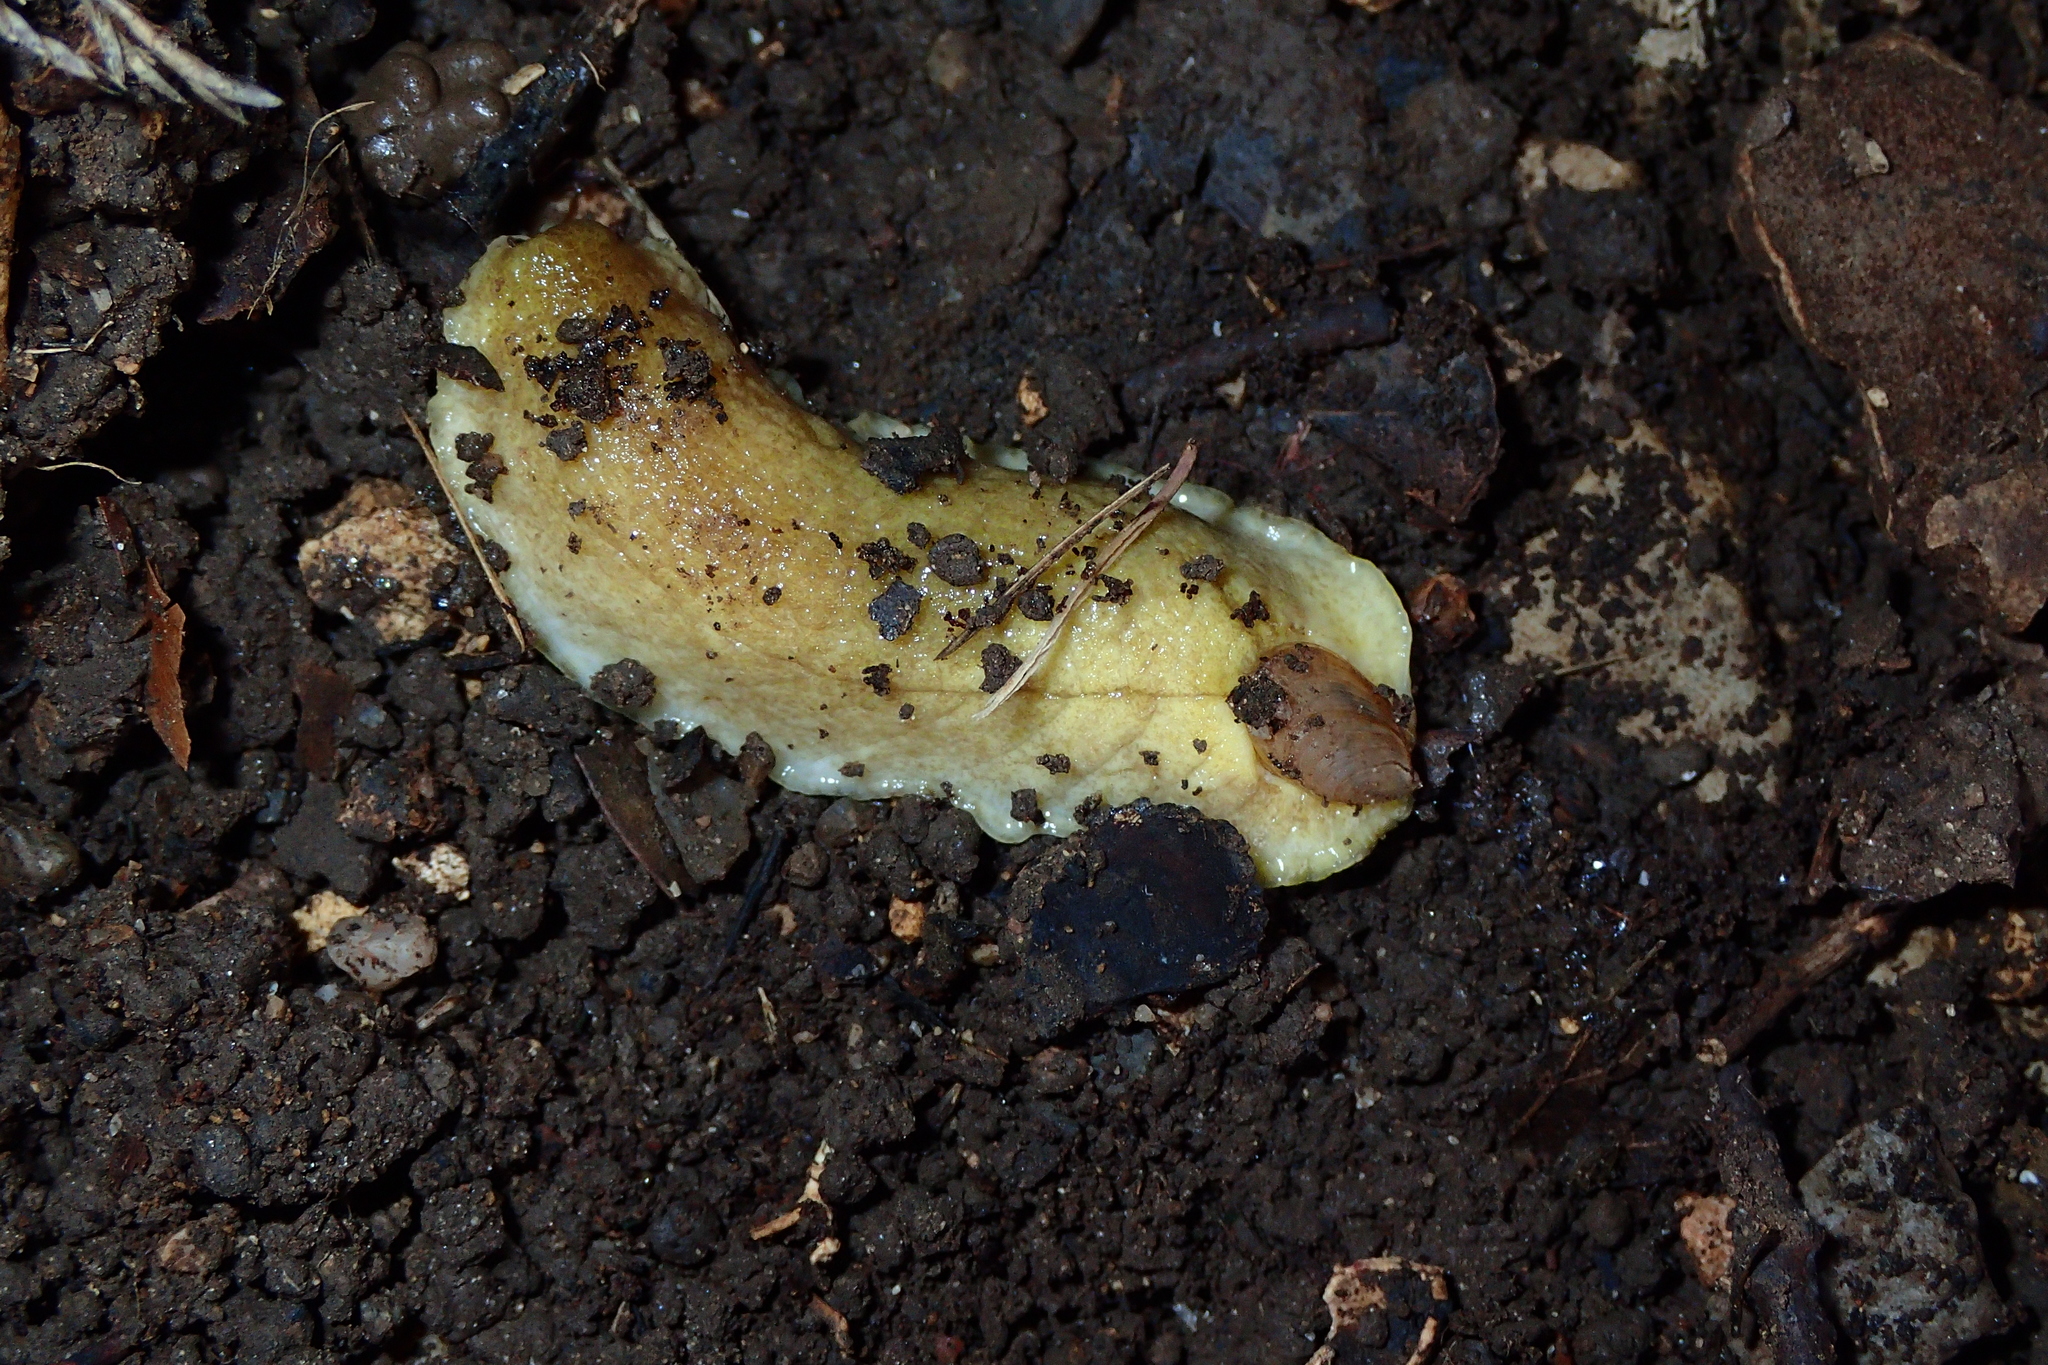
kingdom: Animalia
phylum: Mollusca
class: Gastropoda
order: Stylommatophora
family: Testacellidae
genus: Testacella
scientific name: Testacella haliotidea
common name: Shelled slug
